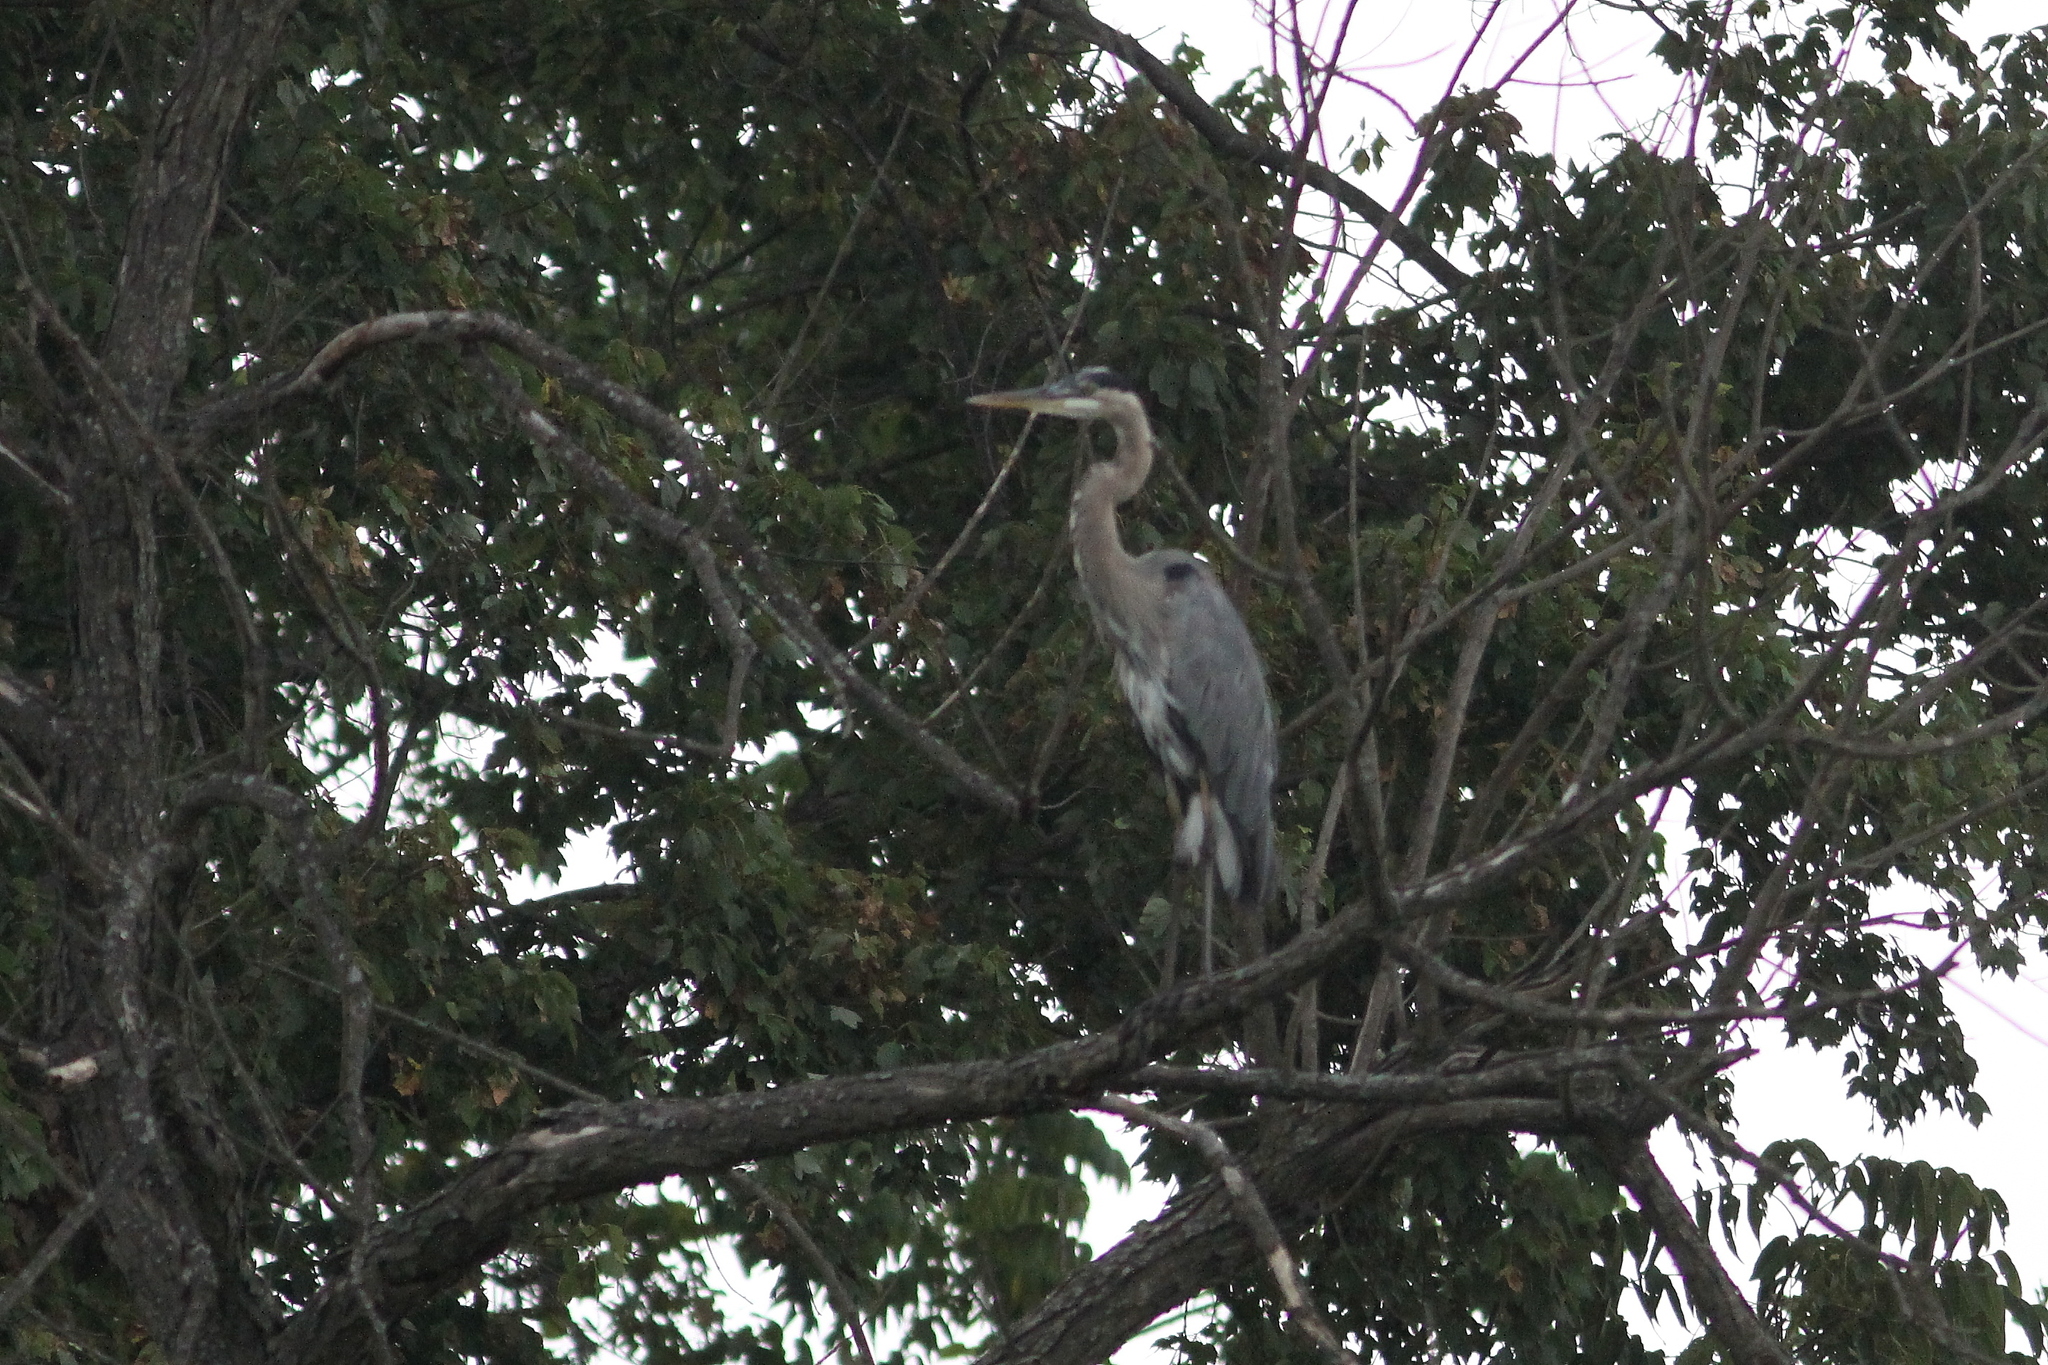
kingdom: Animalia
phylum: Chordata
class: Aves
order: Pelecaniformes
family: Ardeidae
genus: Ardea
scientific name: Ardea herodias
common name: Great blue heron
